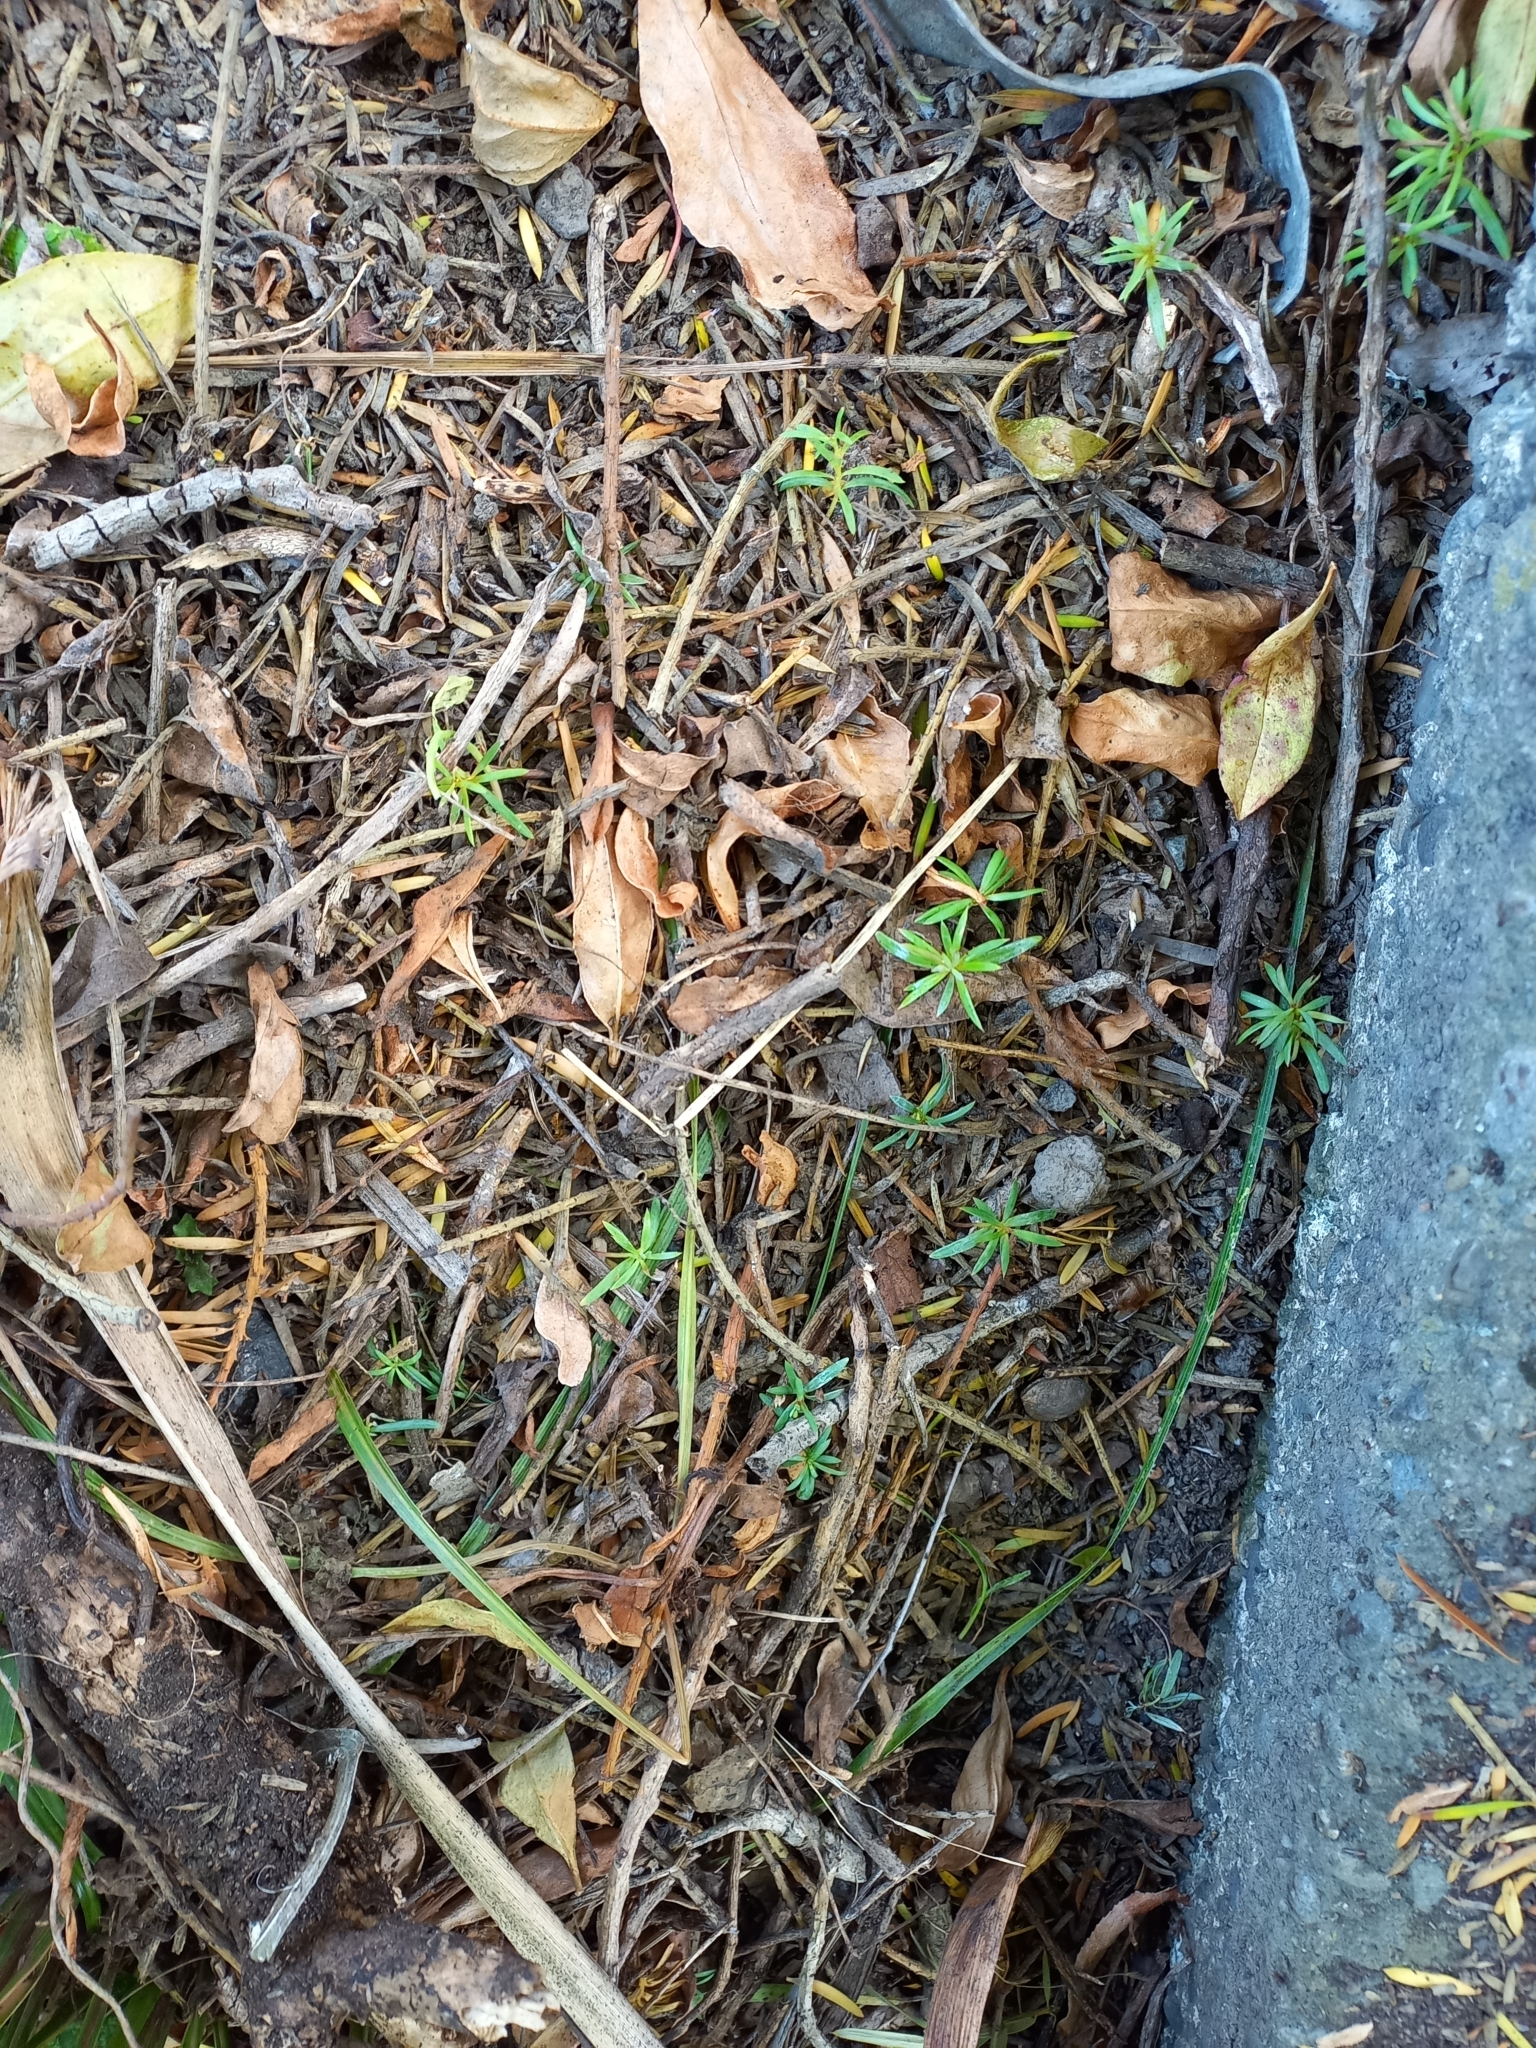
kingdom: Plantae
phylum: Tracheophyta
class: Pinopsida
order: Pinales
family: Podocarpaceae
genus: Podocarpus
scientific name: Podocarpus totara
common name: Totara
